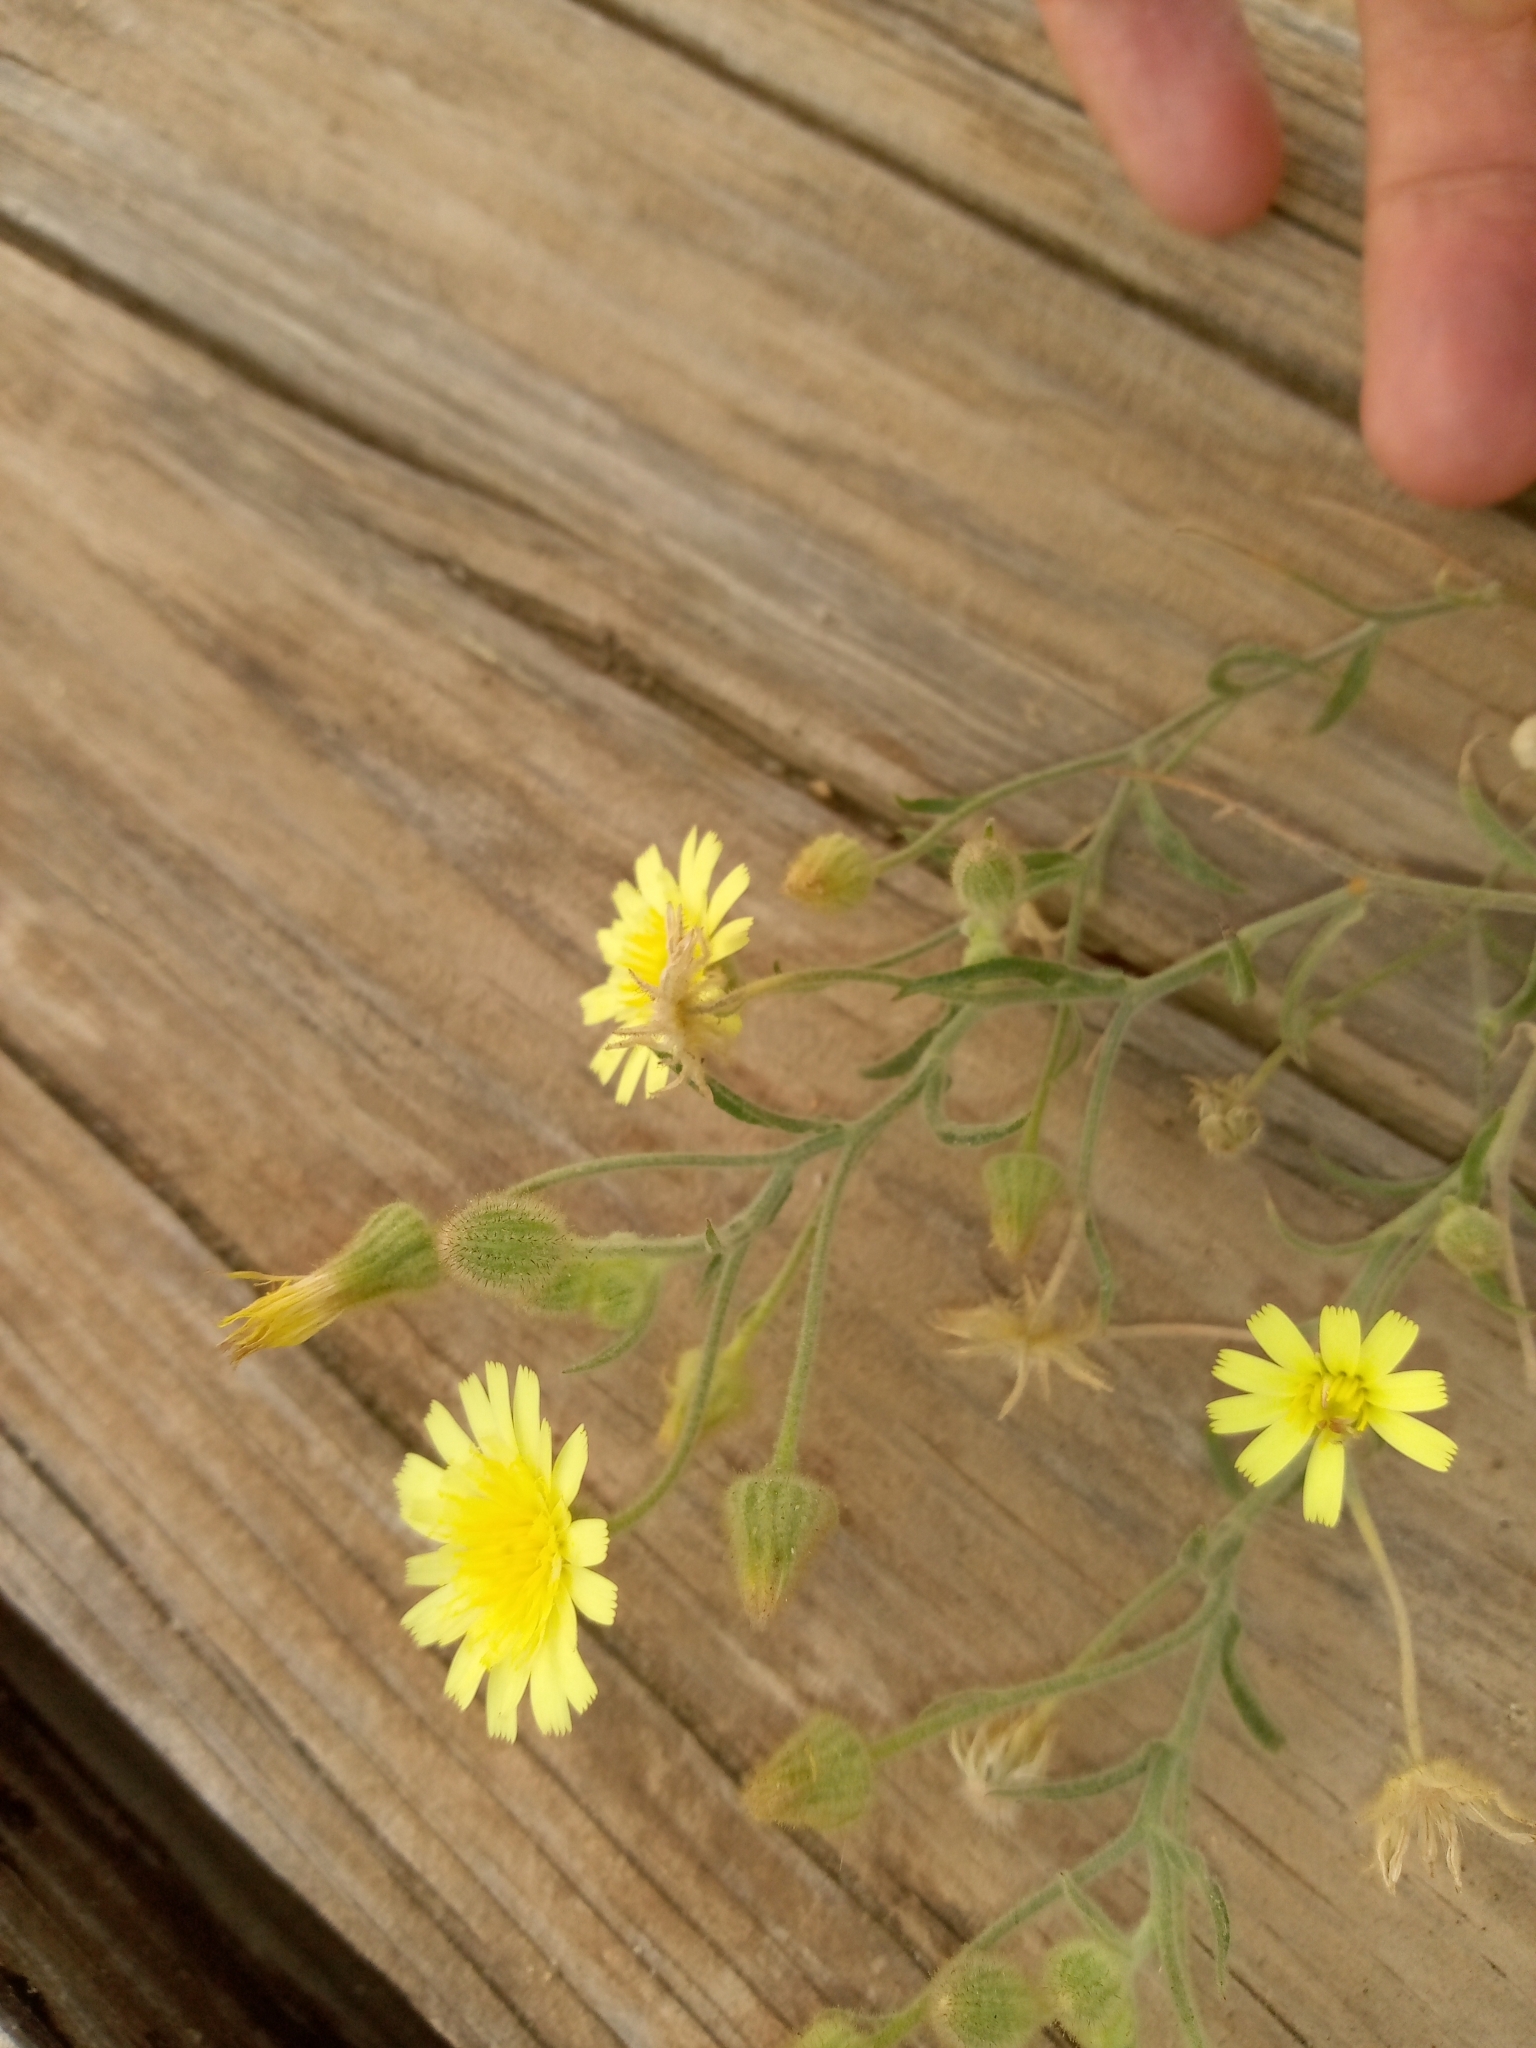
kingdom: Plantae
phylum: Tracheophyta
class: Magnoliopsida
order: Asterales
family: Asteraceae
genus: Andryala
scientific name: Andryala integrifolia
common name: Common andryala
